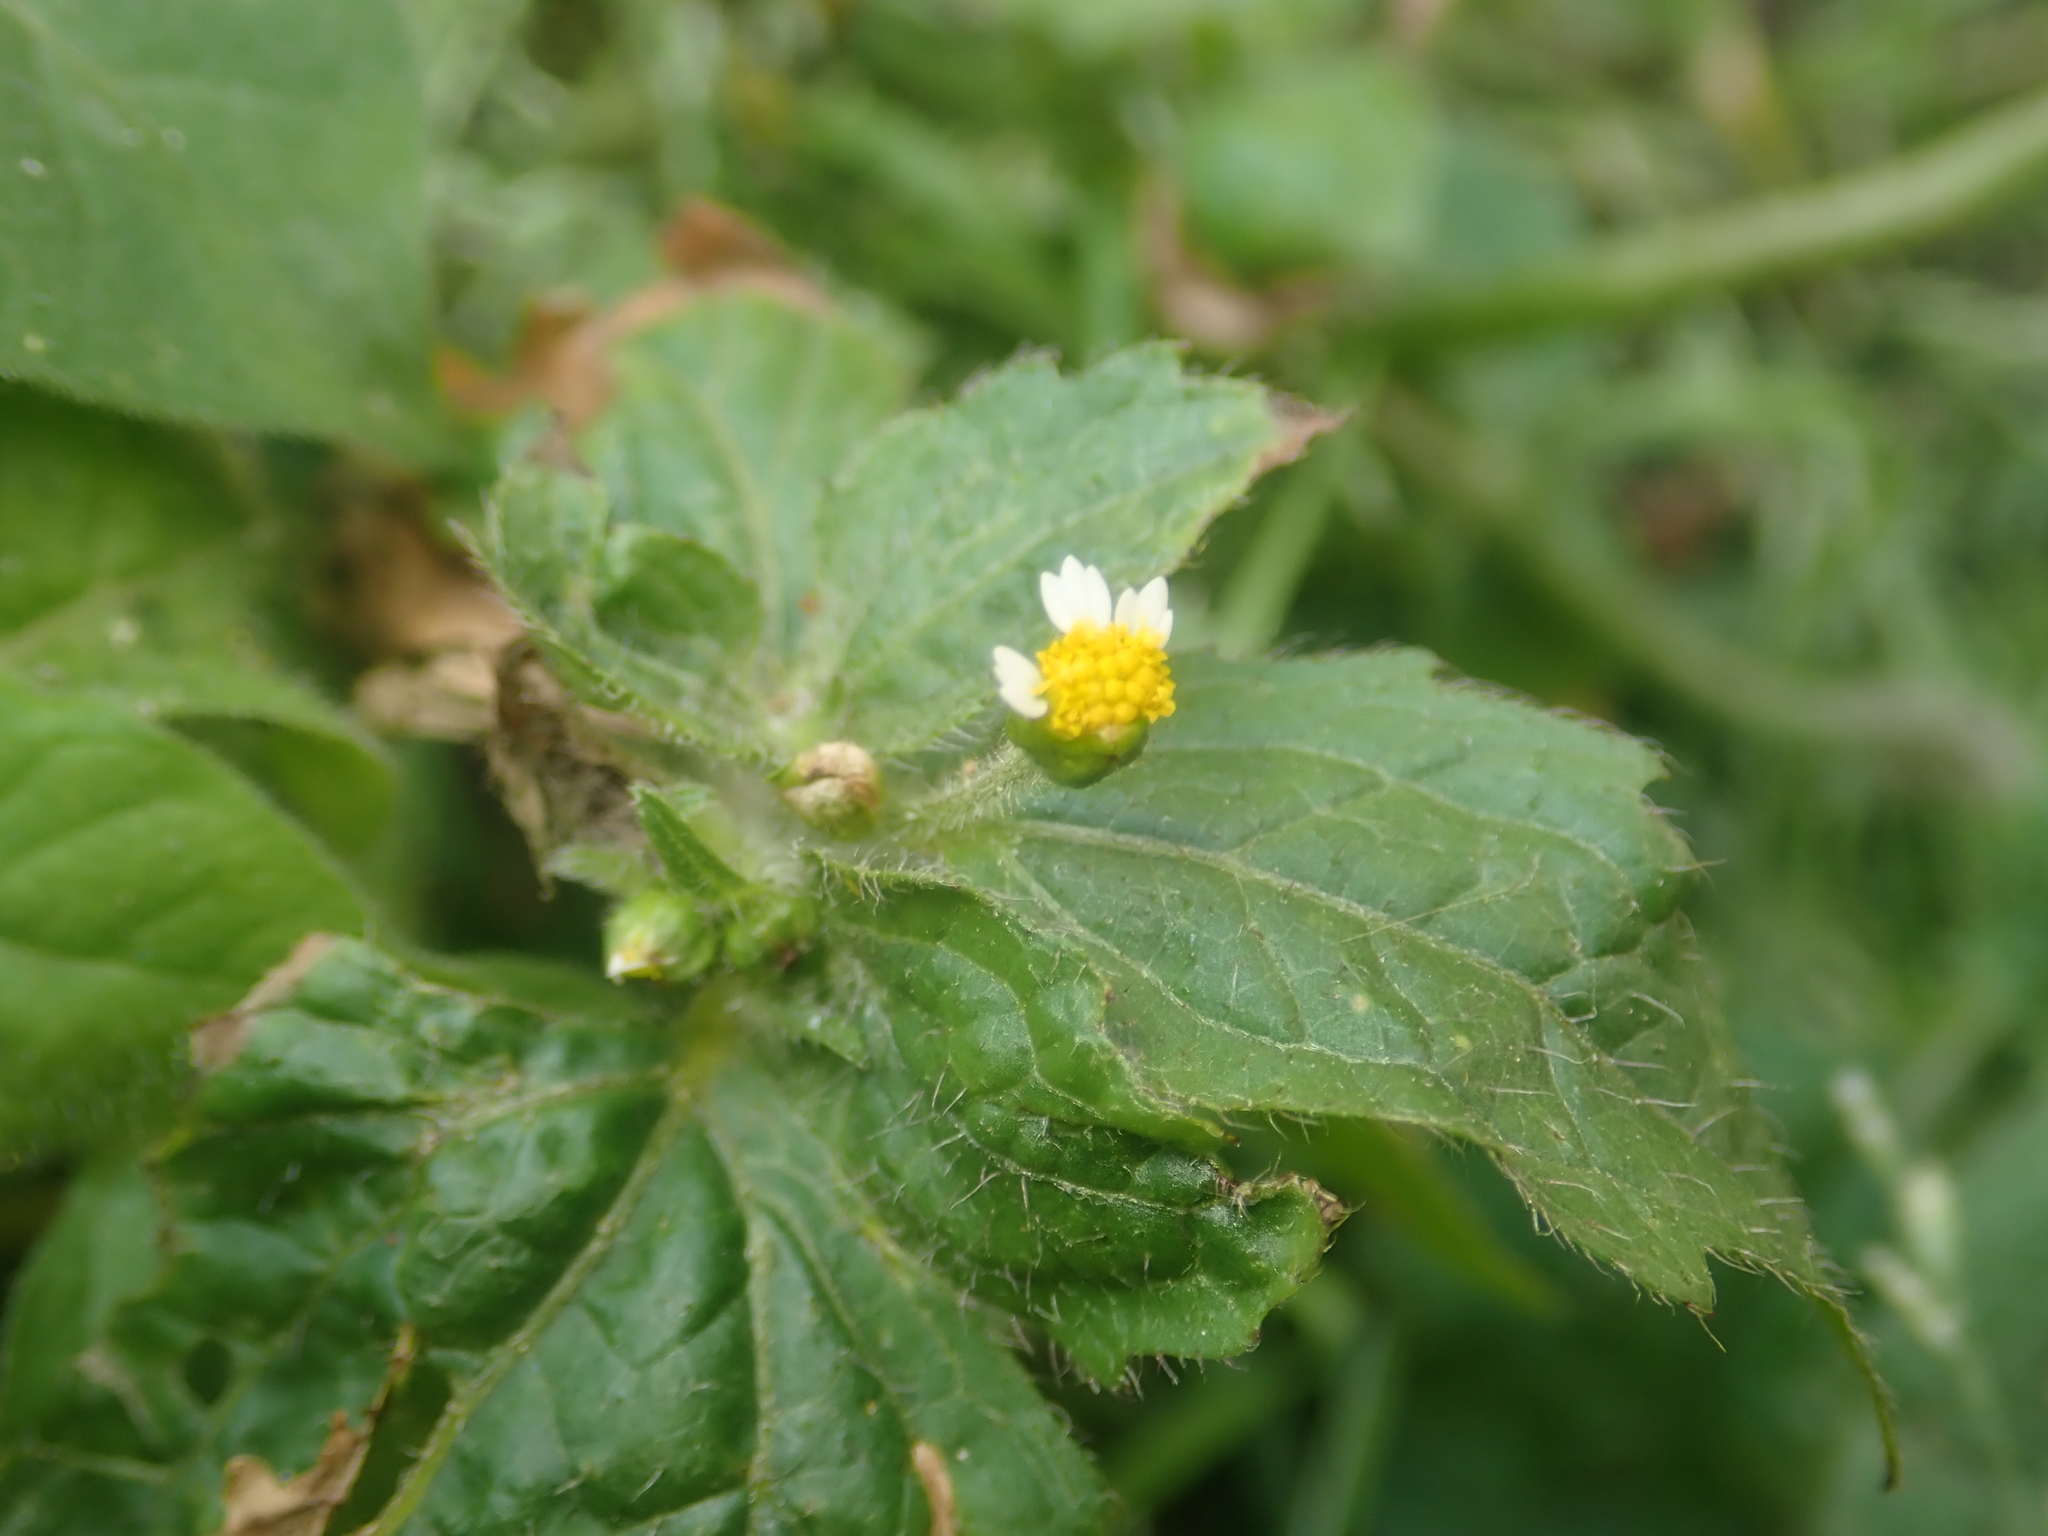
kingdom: Plantae
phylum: Tracheophyta
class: Magnoliopsida
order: Asterales
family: Asteraceae
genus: Galinsoga
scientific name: Galinsoga quadriradiata
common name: Shaggy soldier
